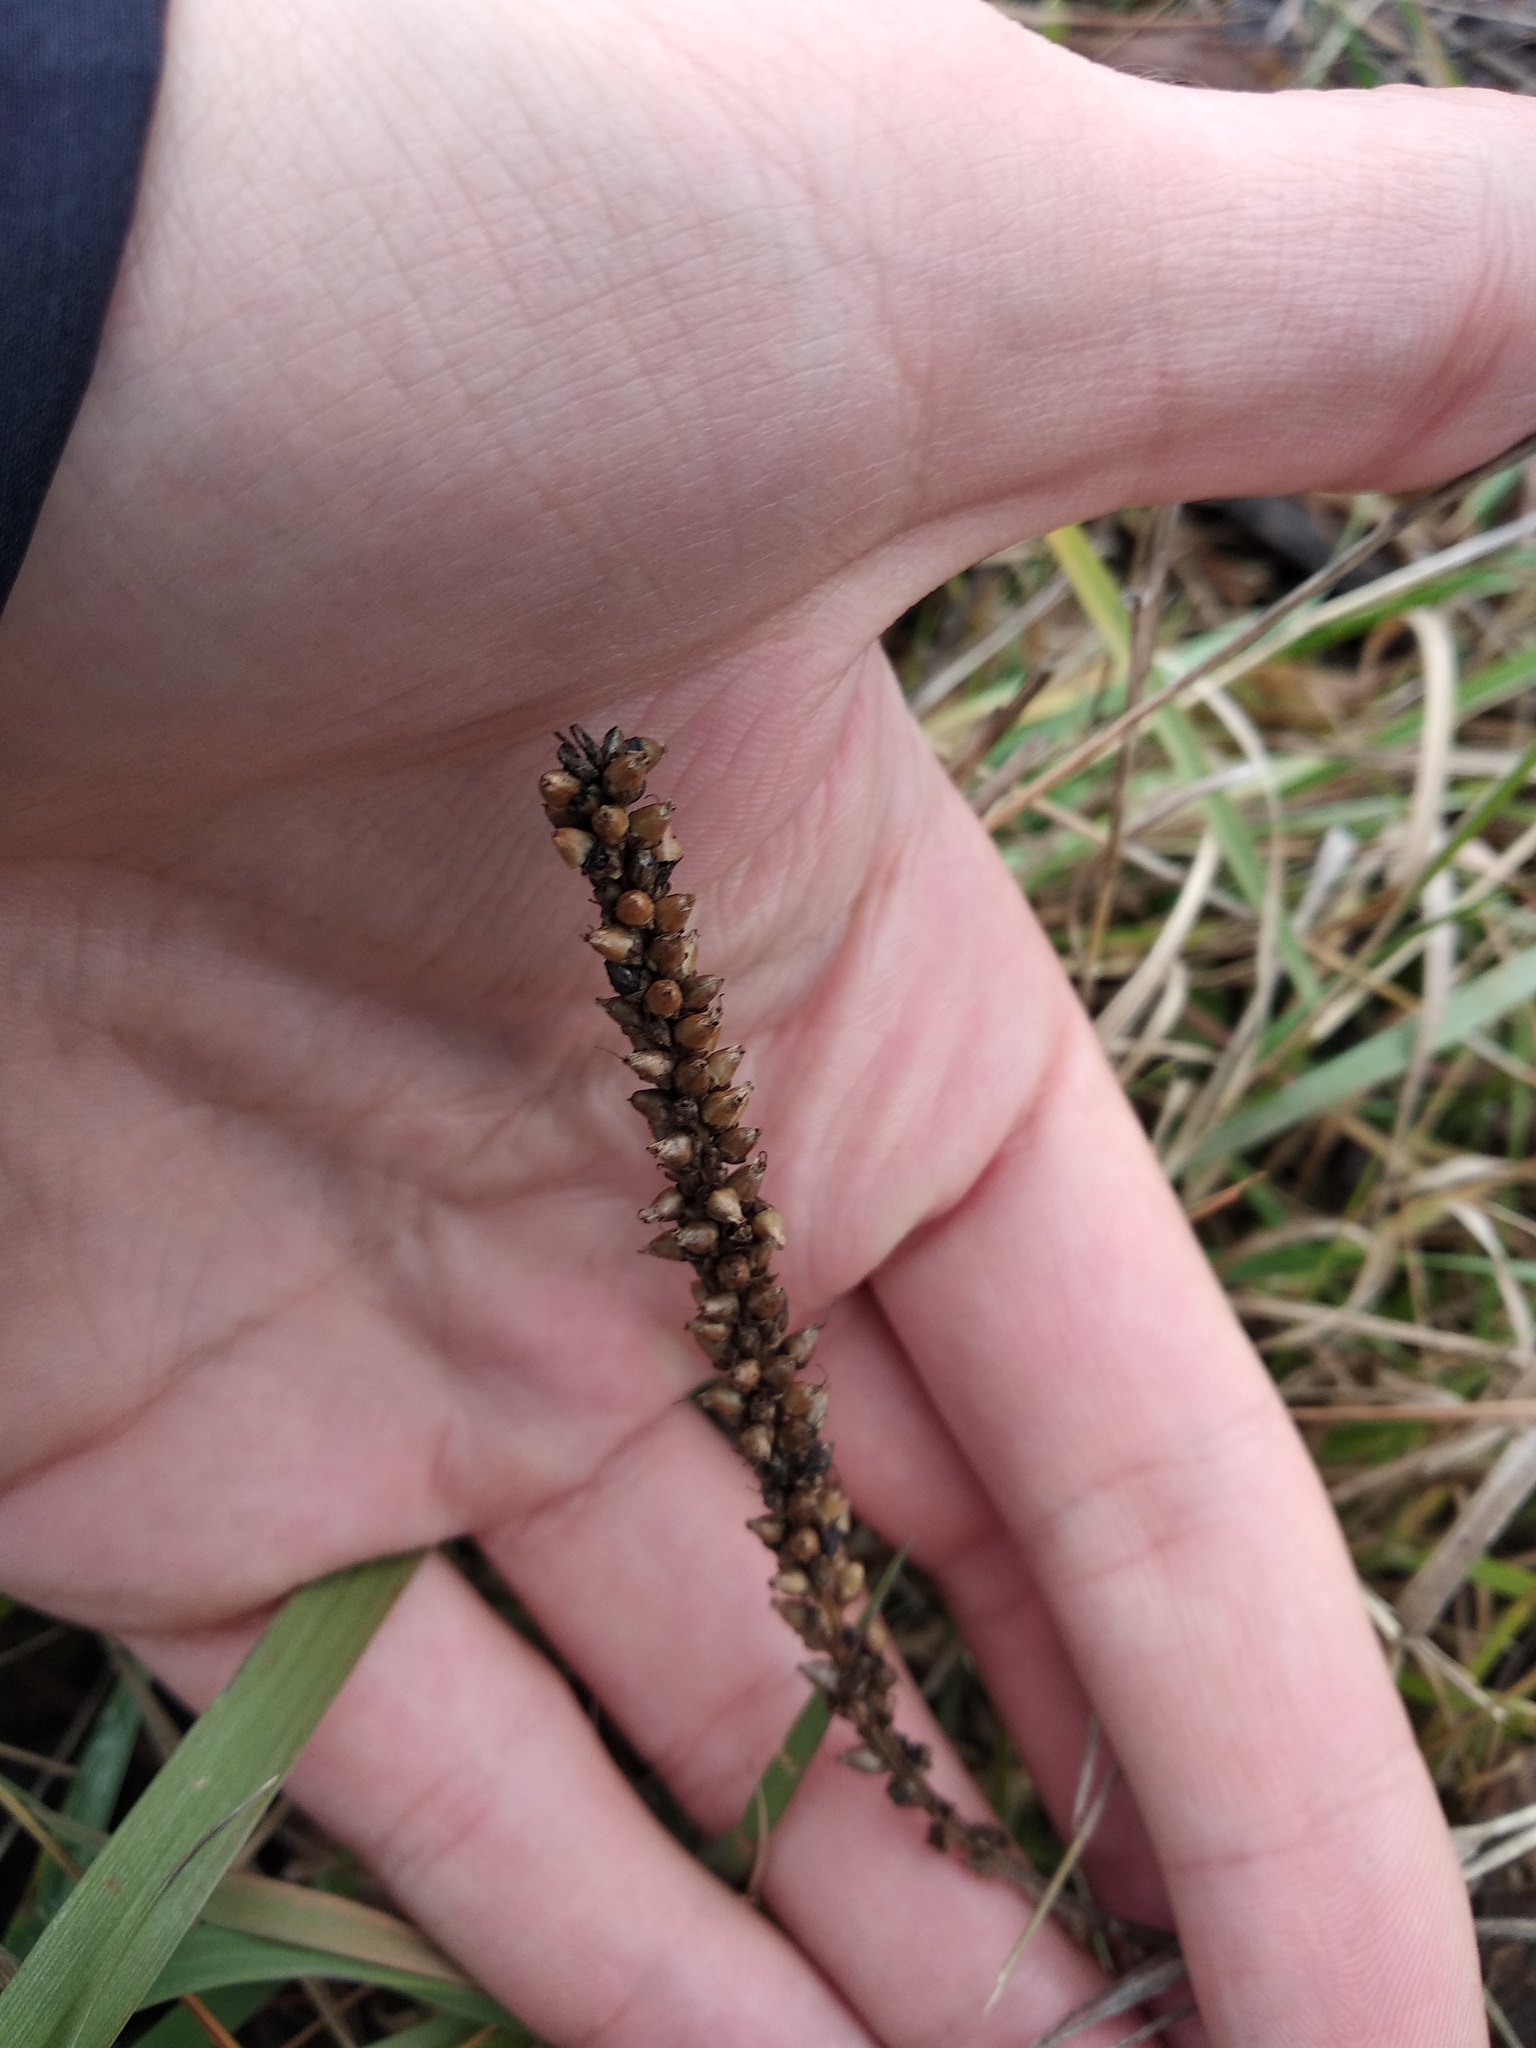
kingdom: Plantae
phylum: Tracheophyta
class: Magnoliopsida
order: Lamiales
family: Plantaginaceae
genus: Plantago
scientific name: Plantago major
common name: Common plantain
